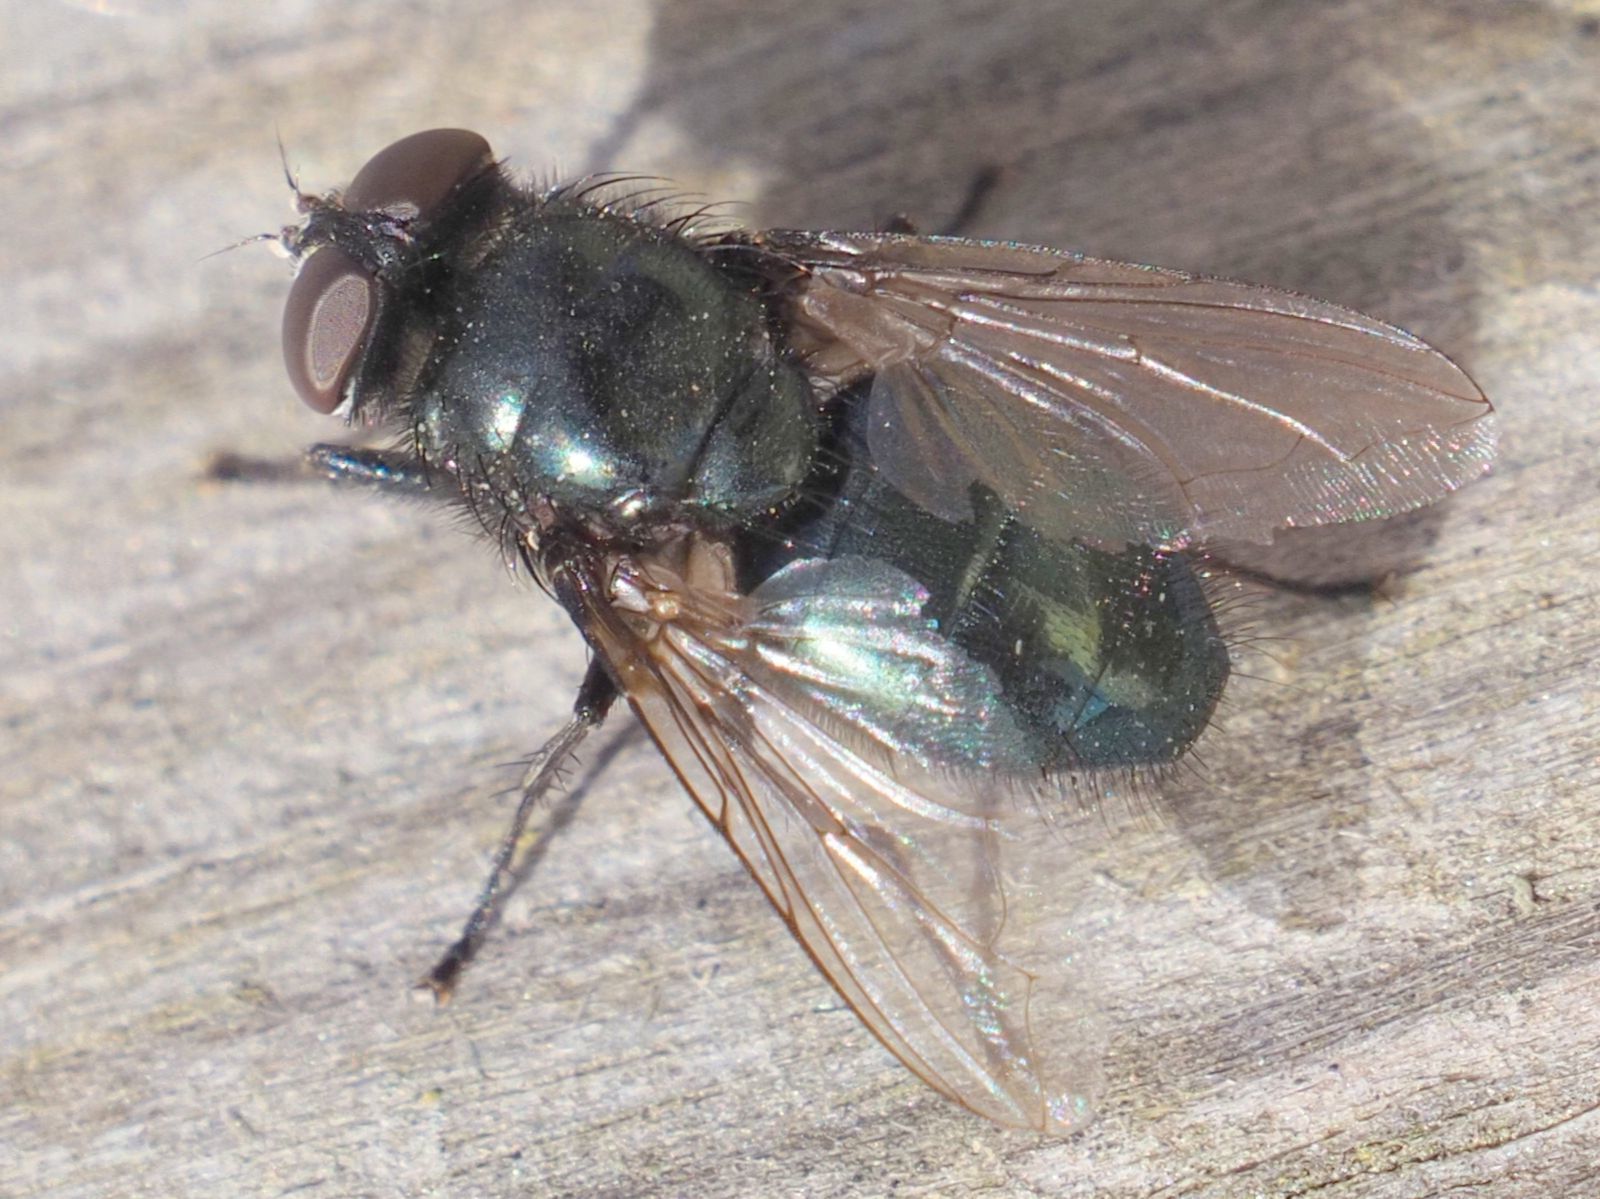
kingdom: Animalia
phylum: Arthropoda
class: Insecta
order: Diptera
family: Calliphoridae
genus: Protophormia
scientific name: Protophormia terraenovae
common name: Blackbottle
